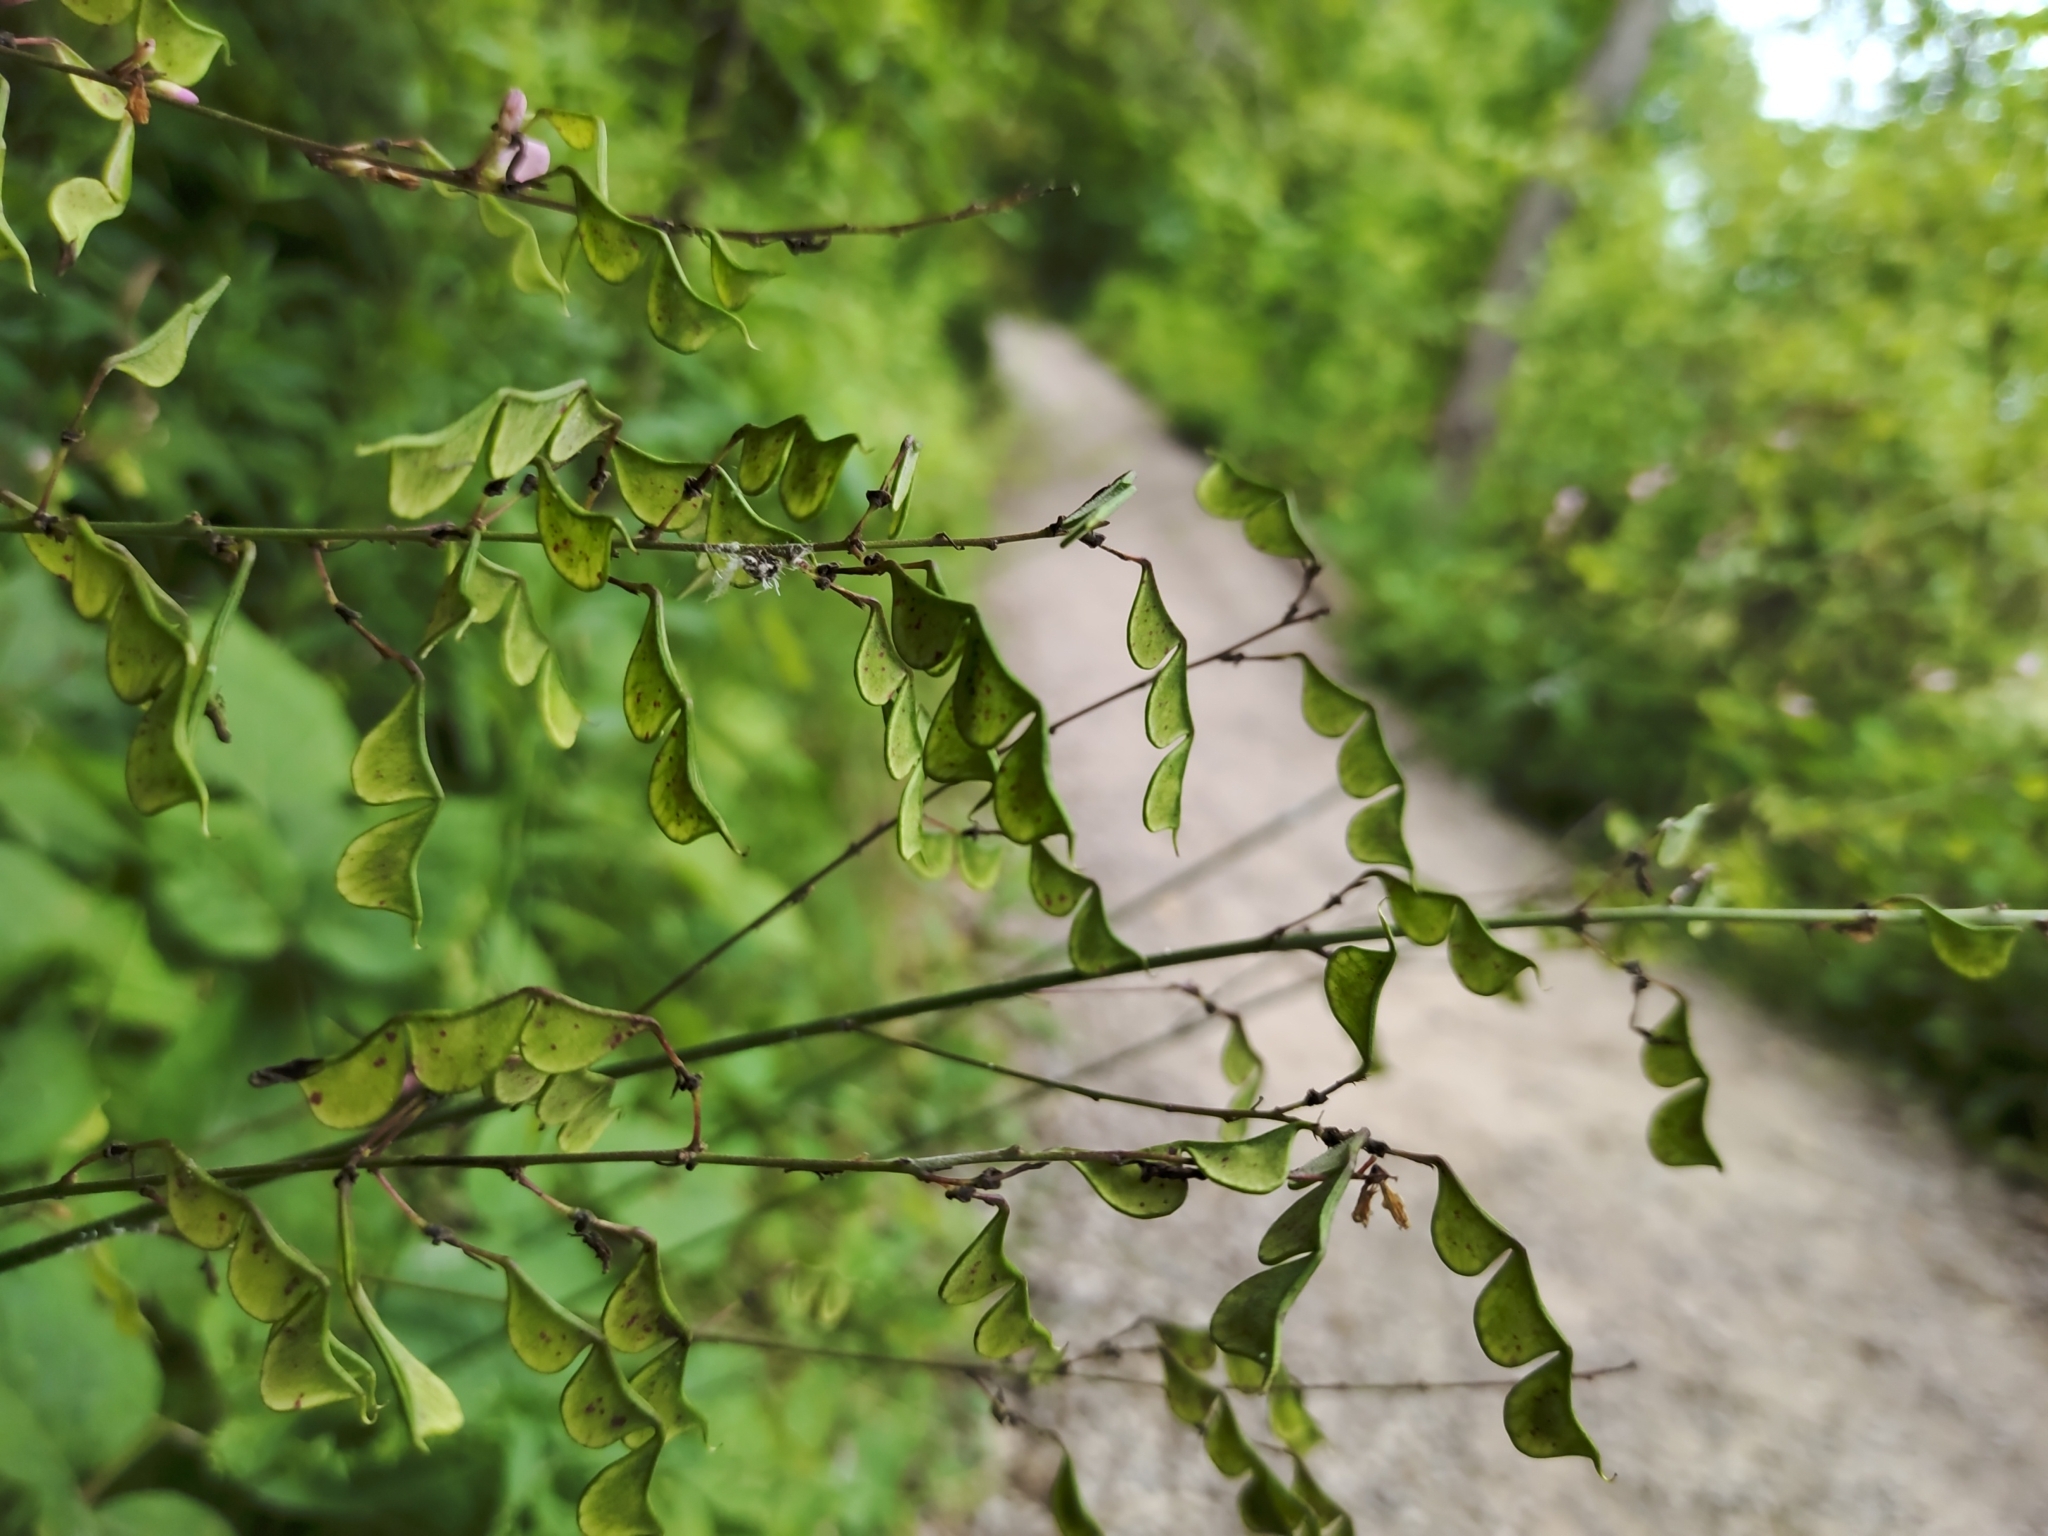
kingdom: Plantae
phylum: Tracheophyta
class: Magnoliopsida
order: Fabales
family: Fabaceae
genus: Hylodesmum
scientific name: Hylodesmum glutinosum
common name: Clustered-leaved tick-trefoil
